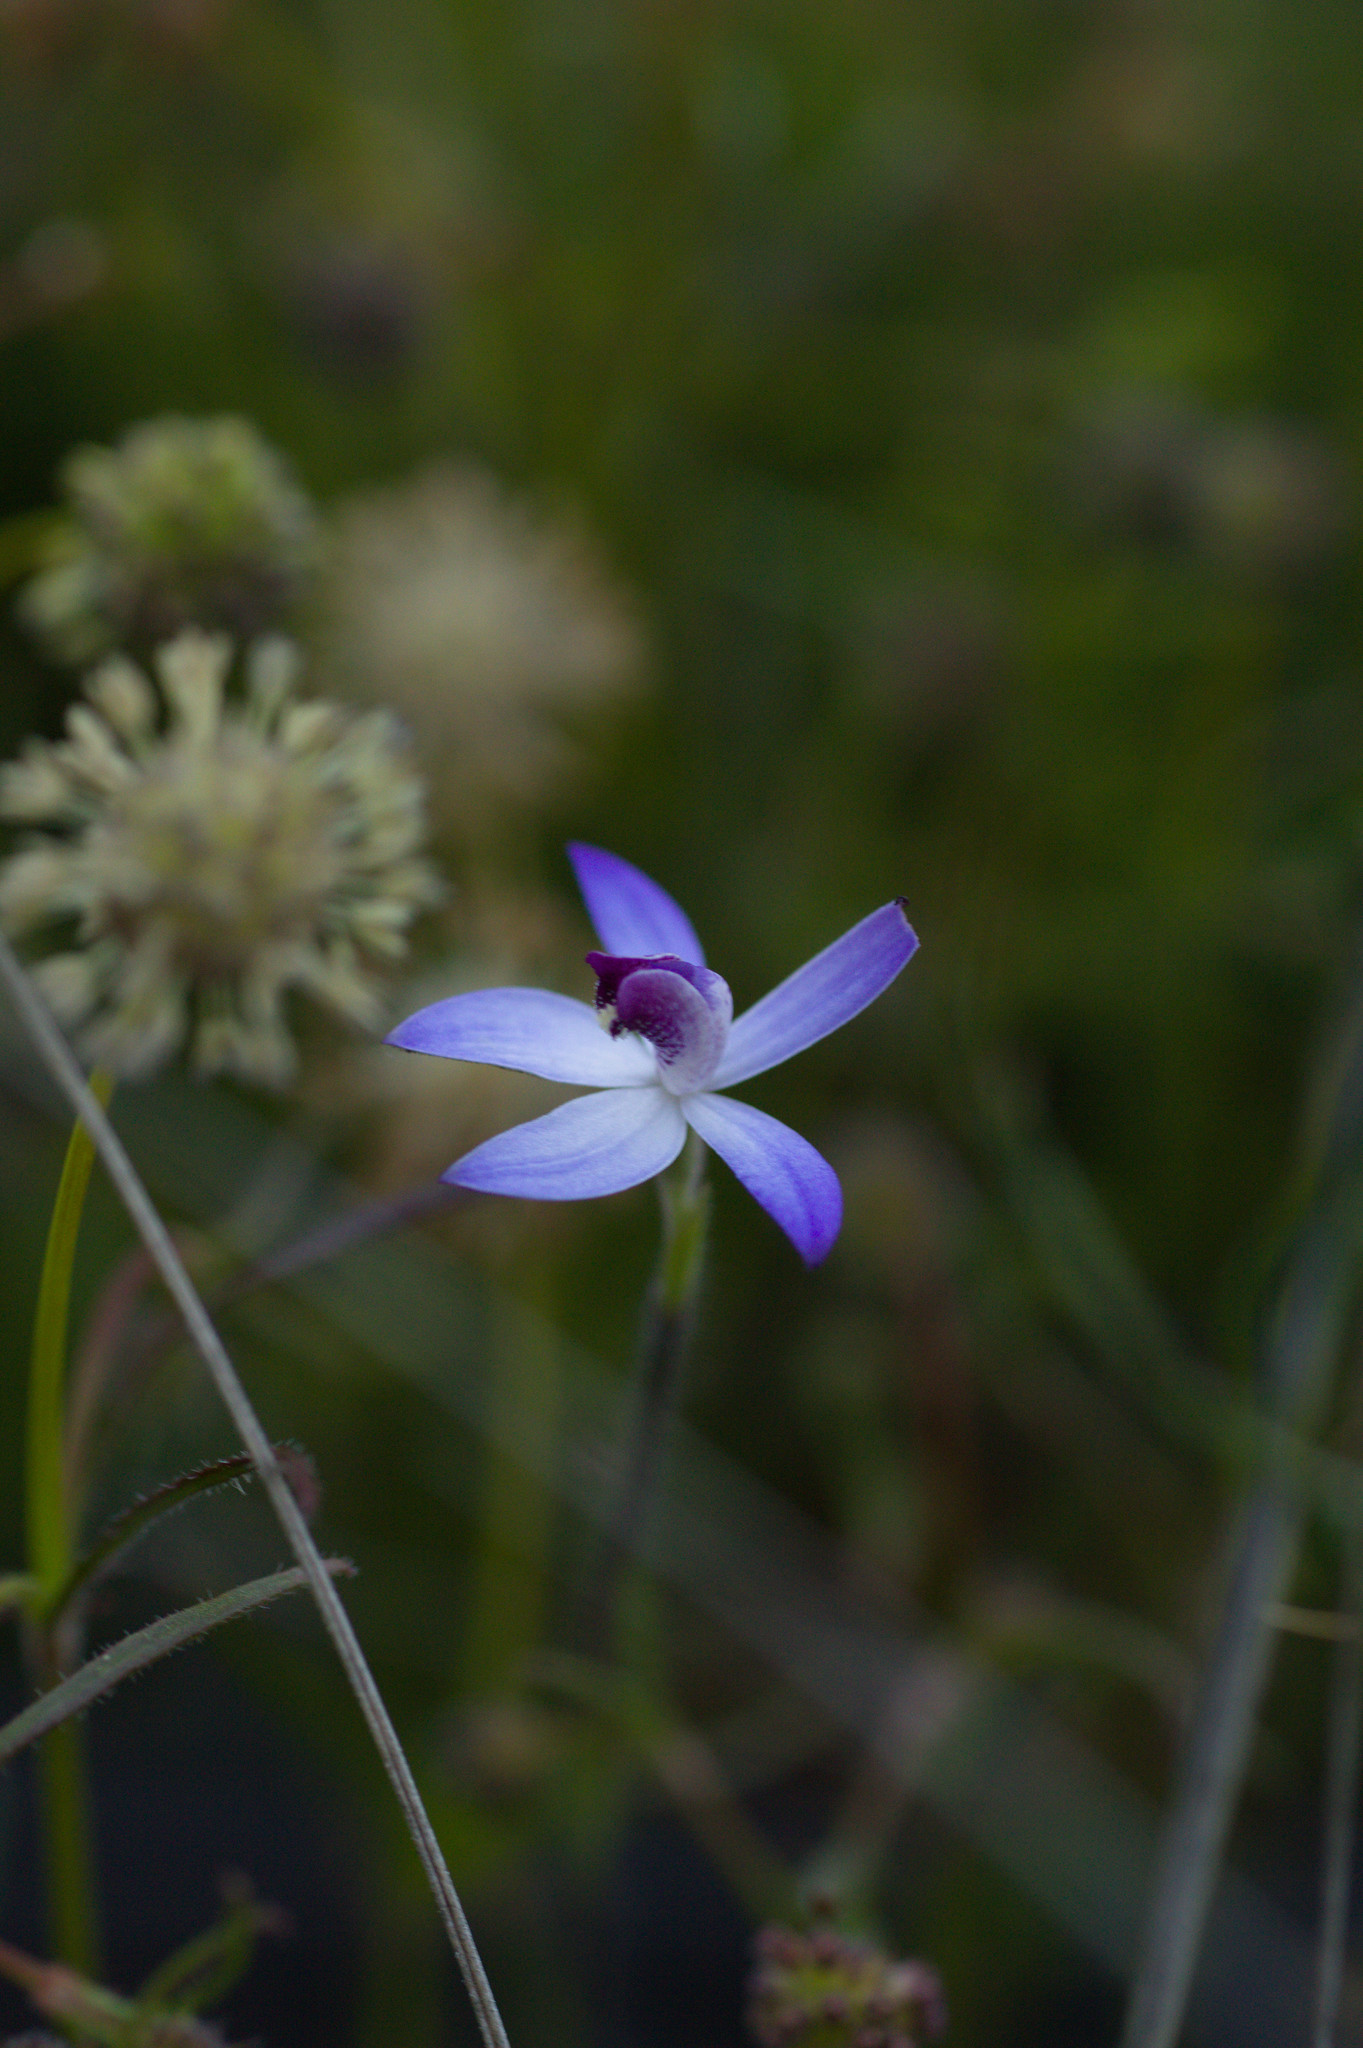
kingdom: Plantae
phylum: Tracheophyta
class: Liliopsida
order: Asparagales
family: Orchidaceae
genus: Caladenia
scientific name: Caladenia amplexans
